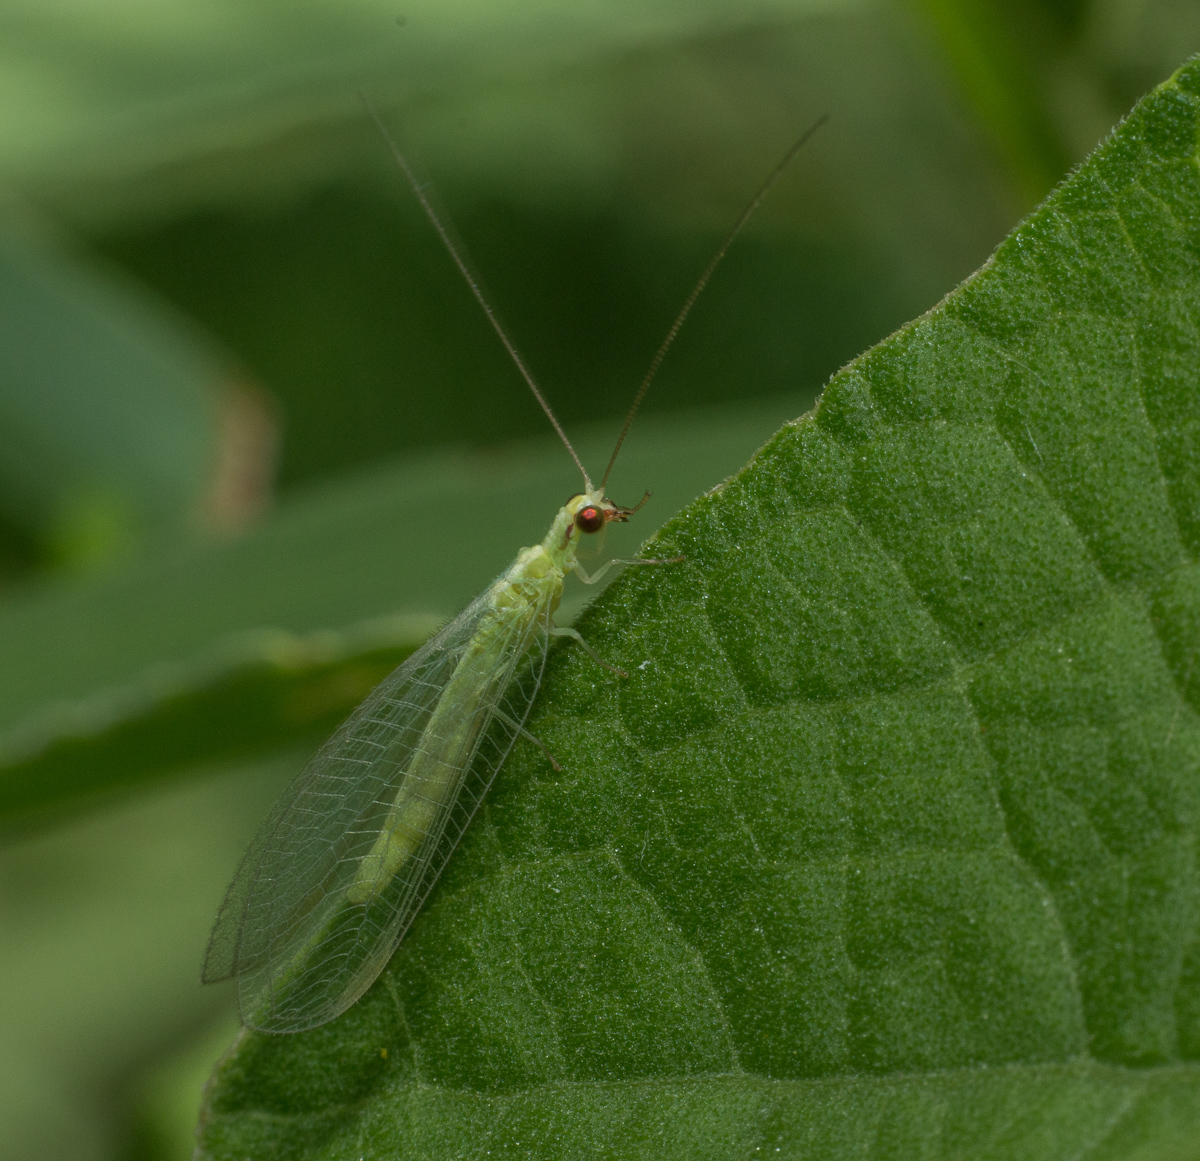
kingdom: Animalia
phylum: Arthropoda
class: Insecta
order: Neuroptera
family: Chrysopidae
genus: Chrysoperla
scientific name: Chrysoperla externa
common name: Green lacewing
